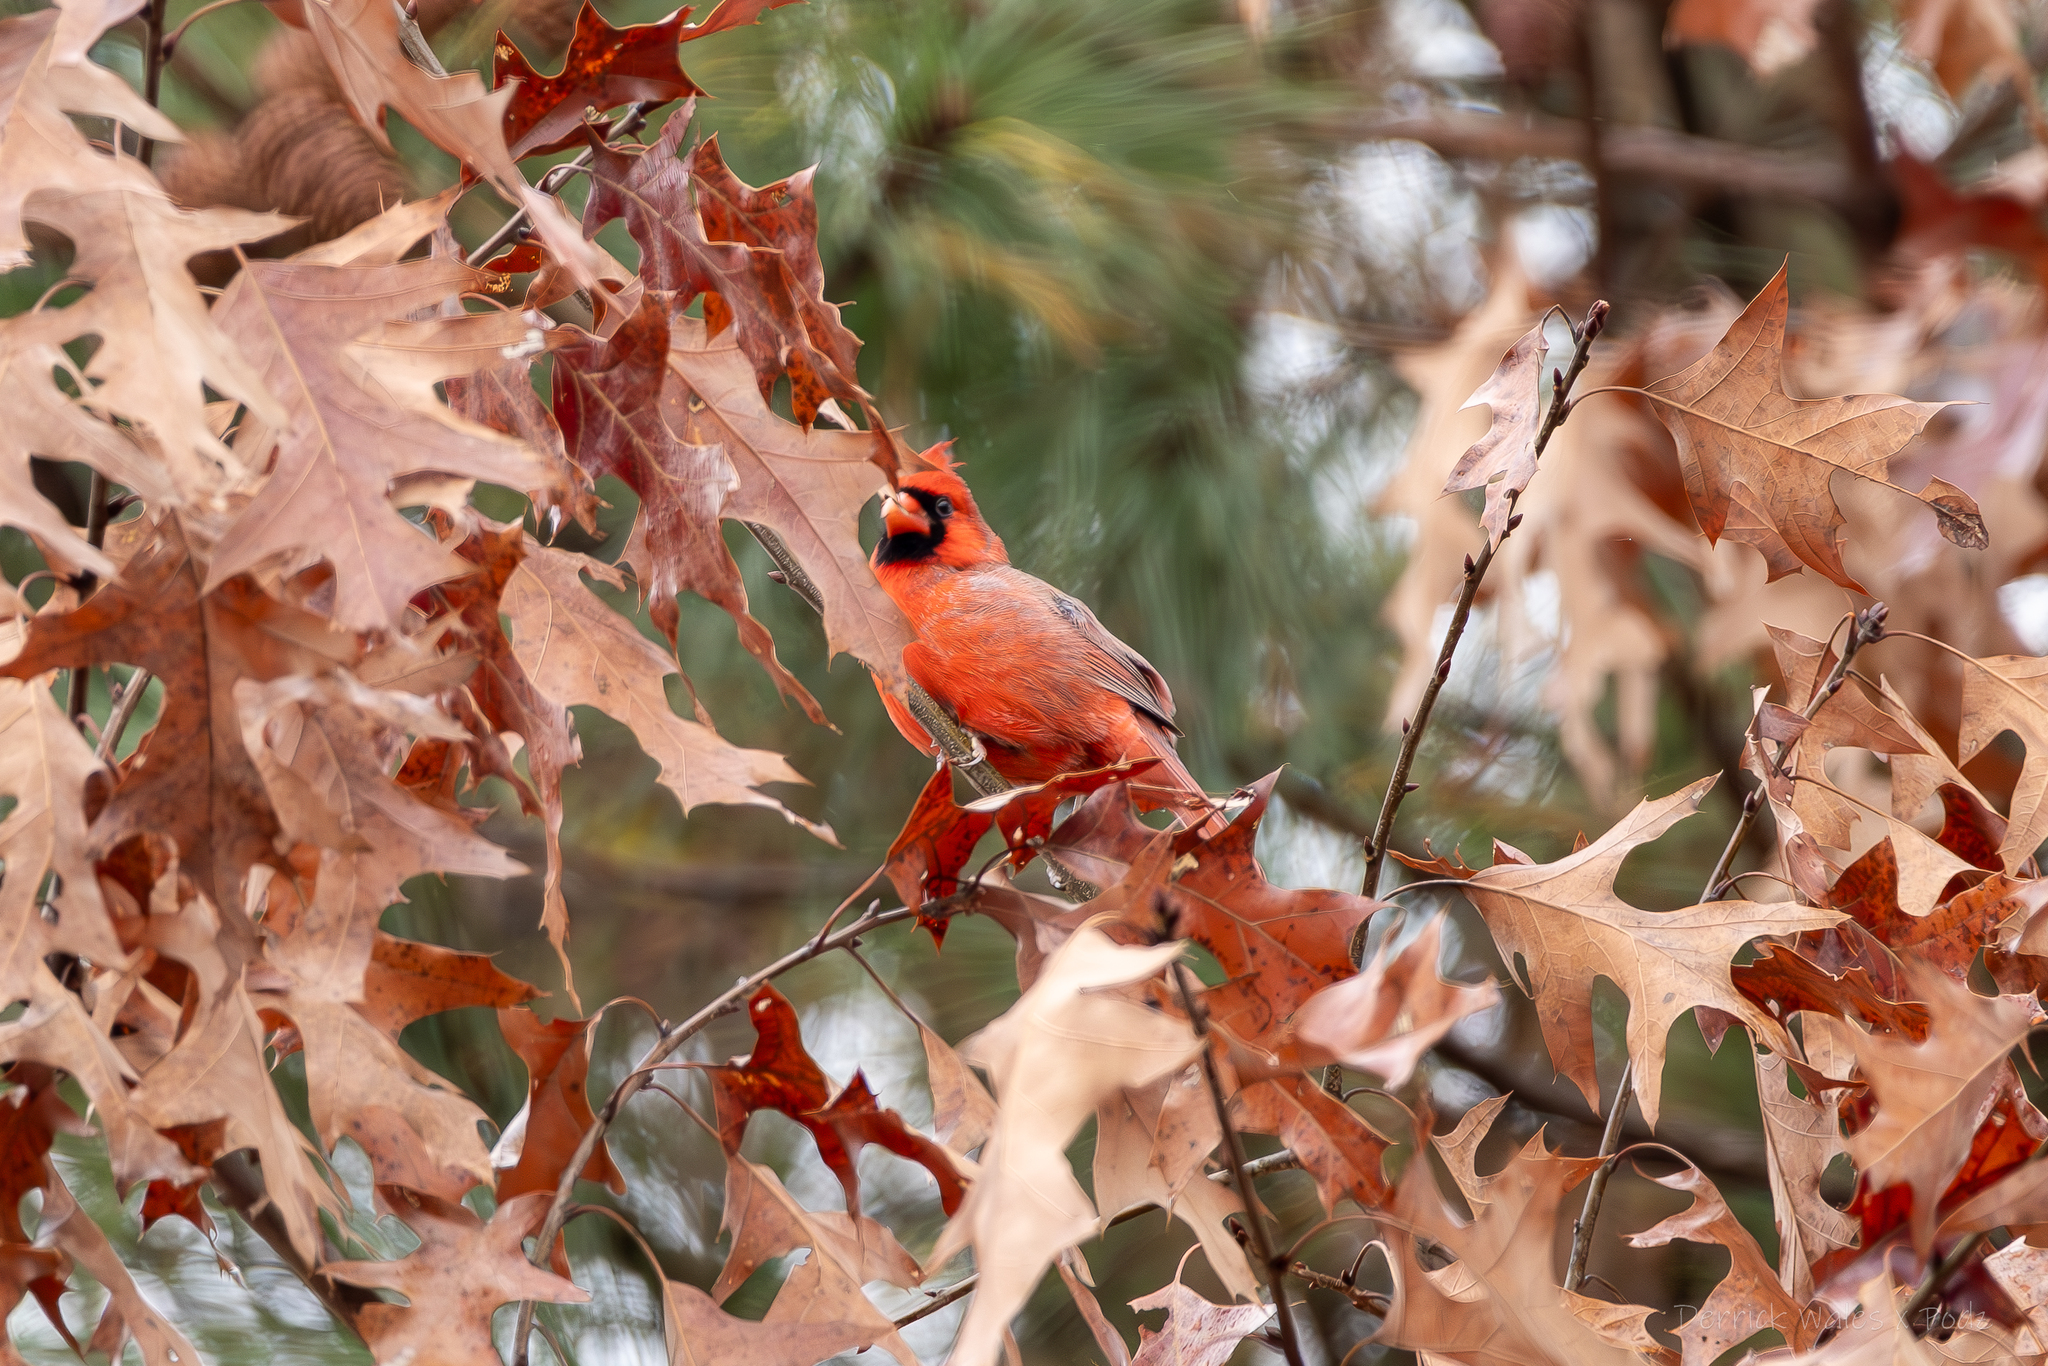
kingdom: Animalia
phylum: Chordata
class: Aves
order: Passeriformes
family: Cardinalidae
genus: Cardinalis
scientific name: Cardinalis cardinalis
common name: Northern cardinal
